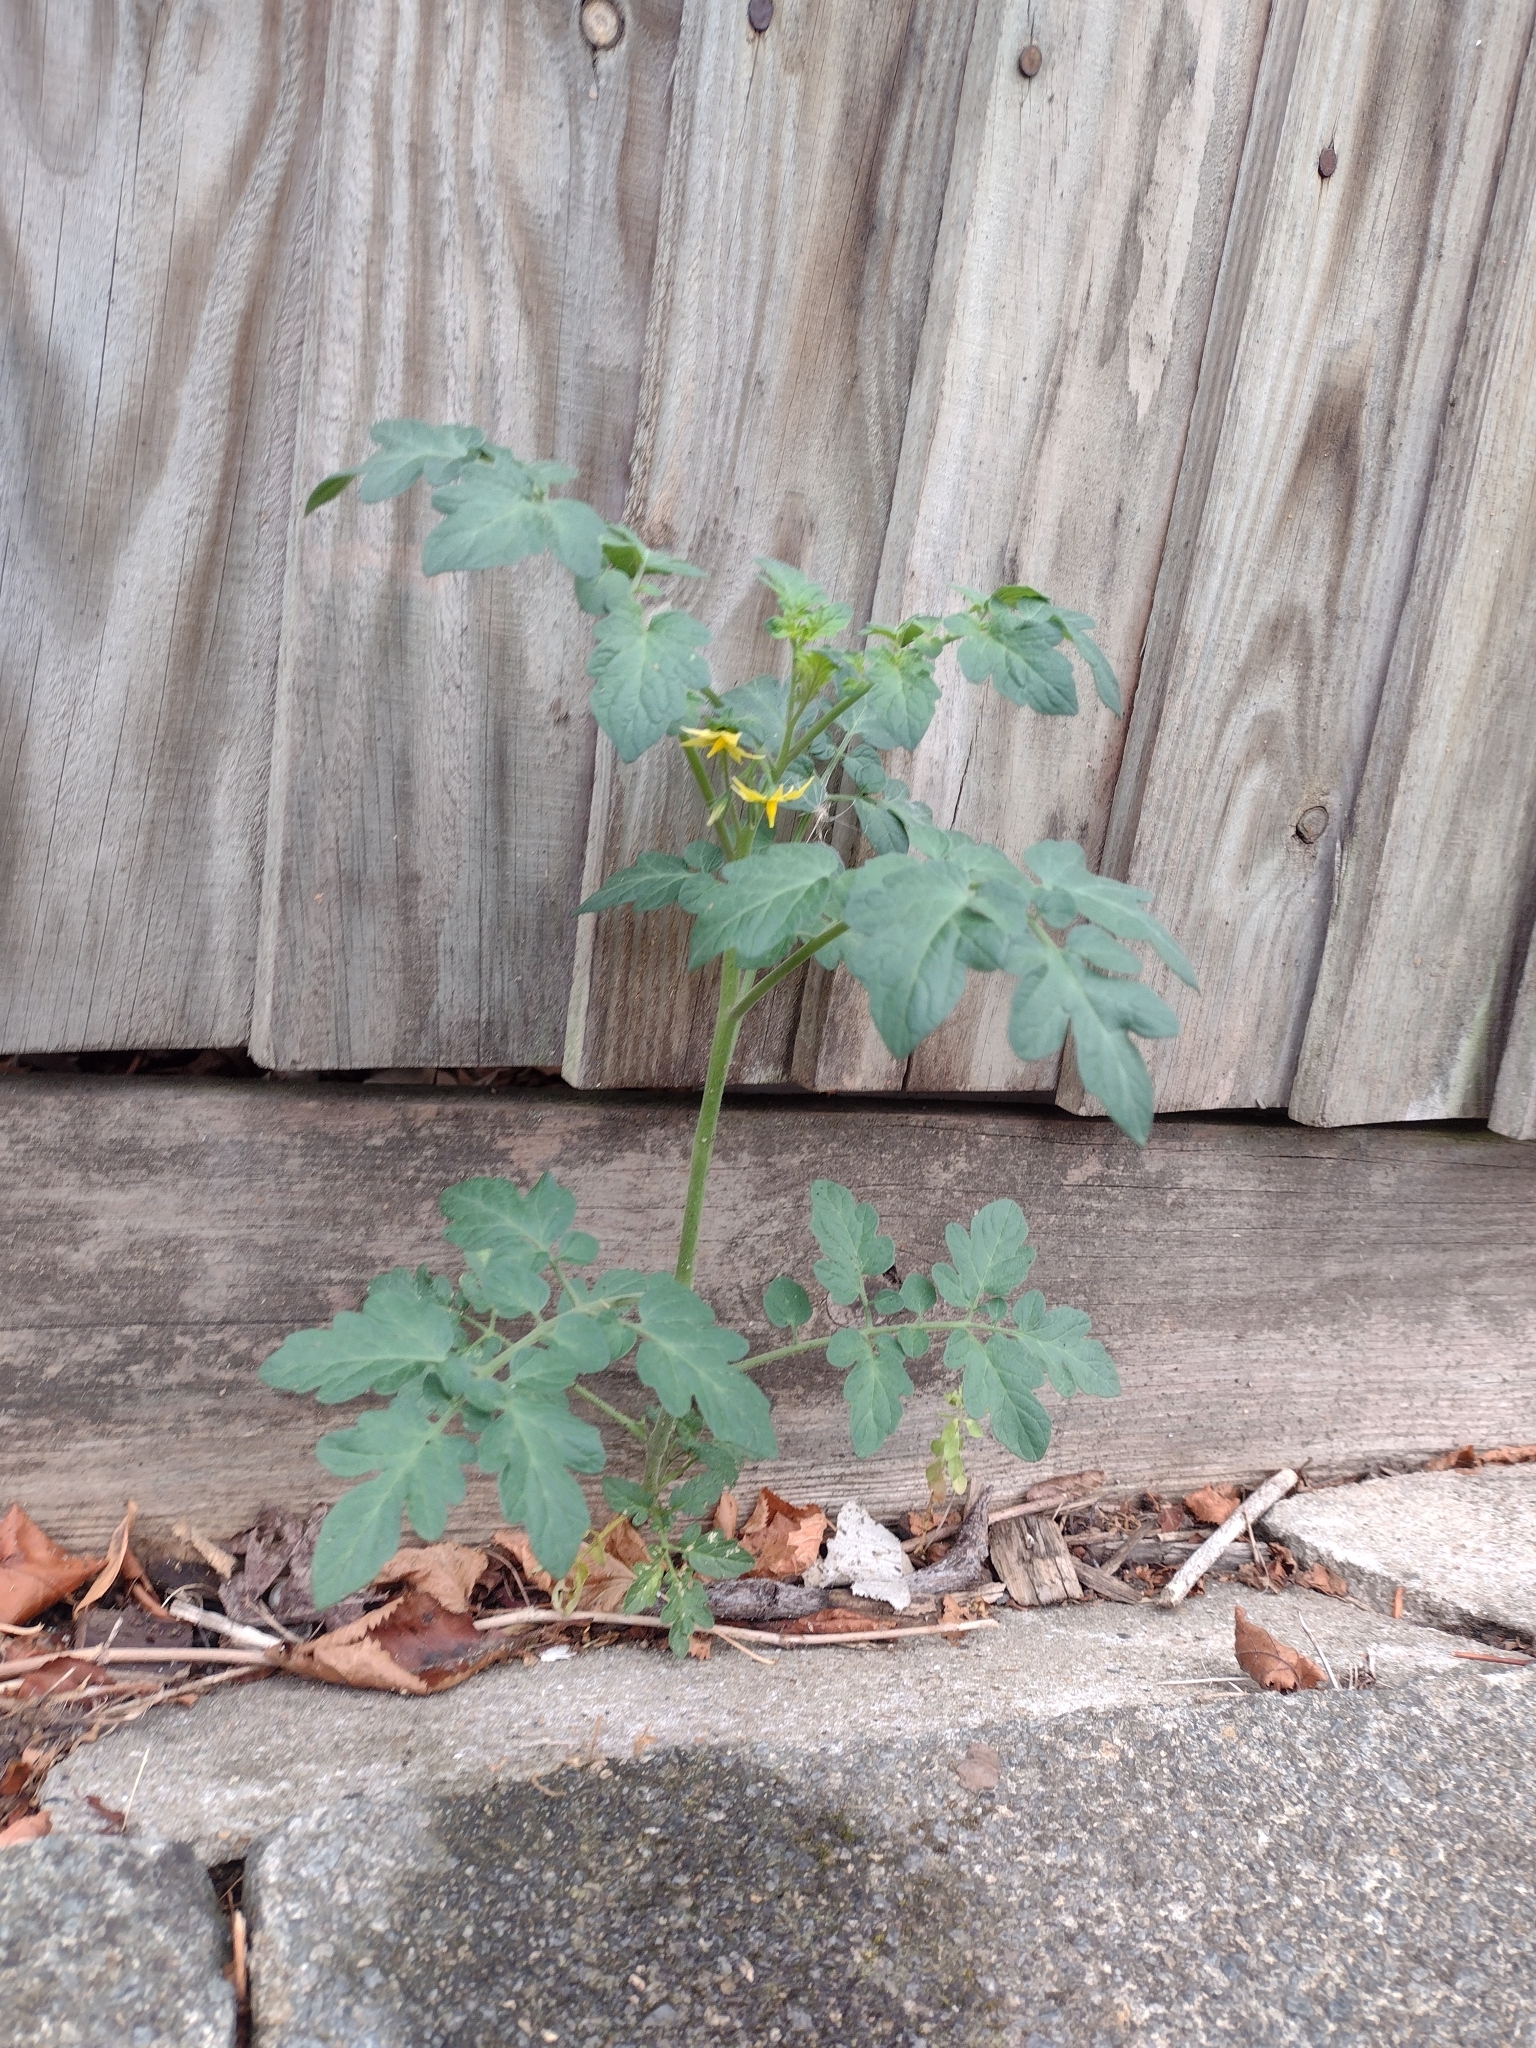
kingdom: Plantae
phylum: Tracheophyta
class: Magnoliopsida
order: Solanales
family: Solanaceae
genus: Solanum
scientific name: Solanum lycopersicum
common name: Garden tomato
